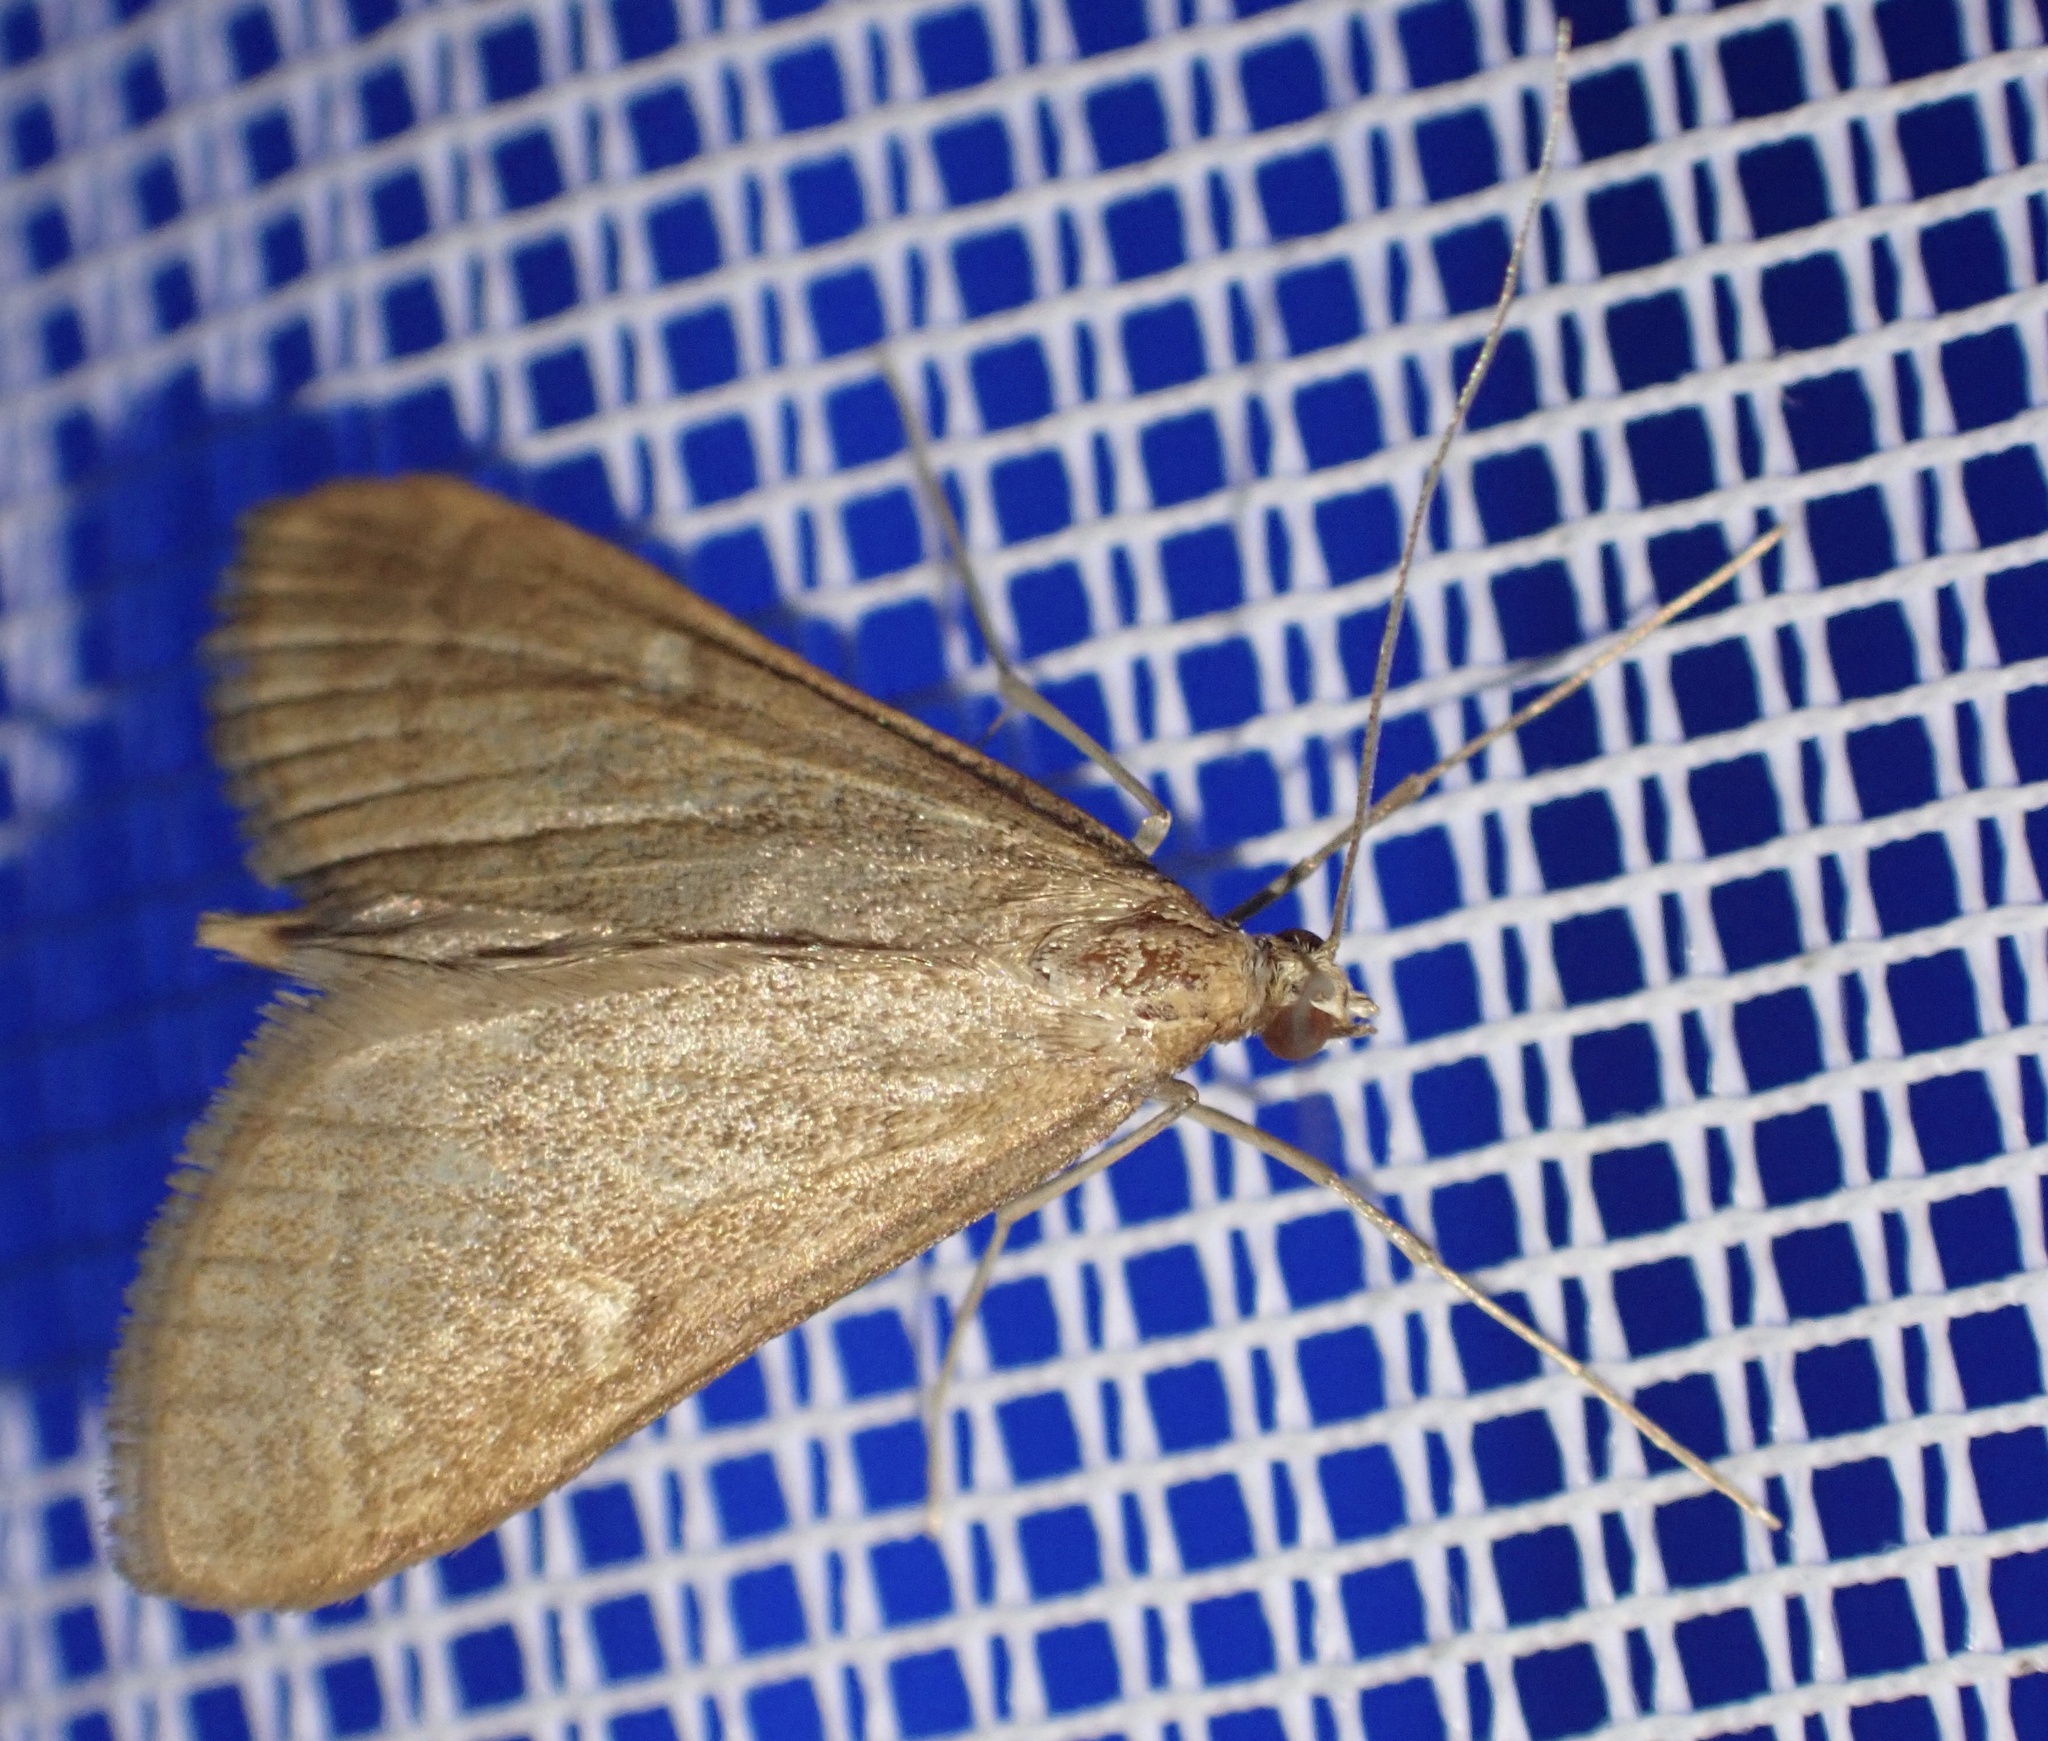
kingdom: Animalia
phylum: Arthropoda
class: Insecta
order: Lepidoptera
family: Crambidae
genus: Stenia
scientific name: Stenia Dolicharthria punctalis
